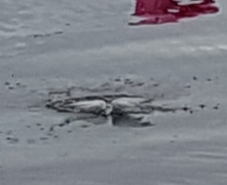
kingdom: Animalia
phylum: Chordata
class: Aves
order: Charadriiformes
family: Laridae
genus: Sterna
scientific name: Sterna hirundo
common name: Common tern
